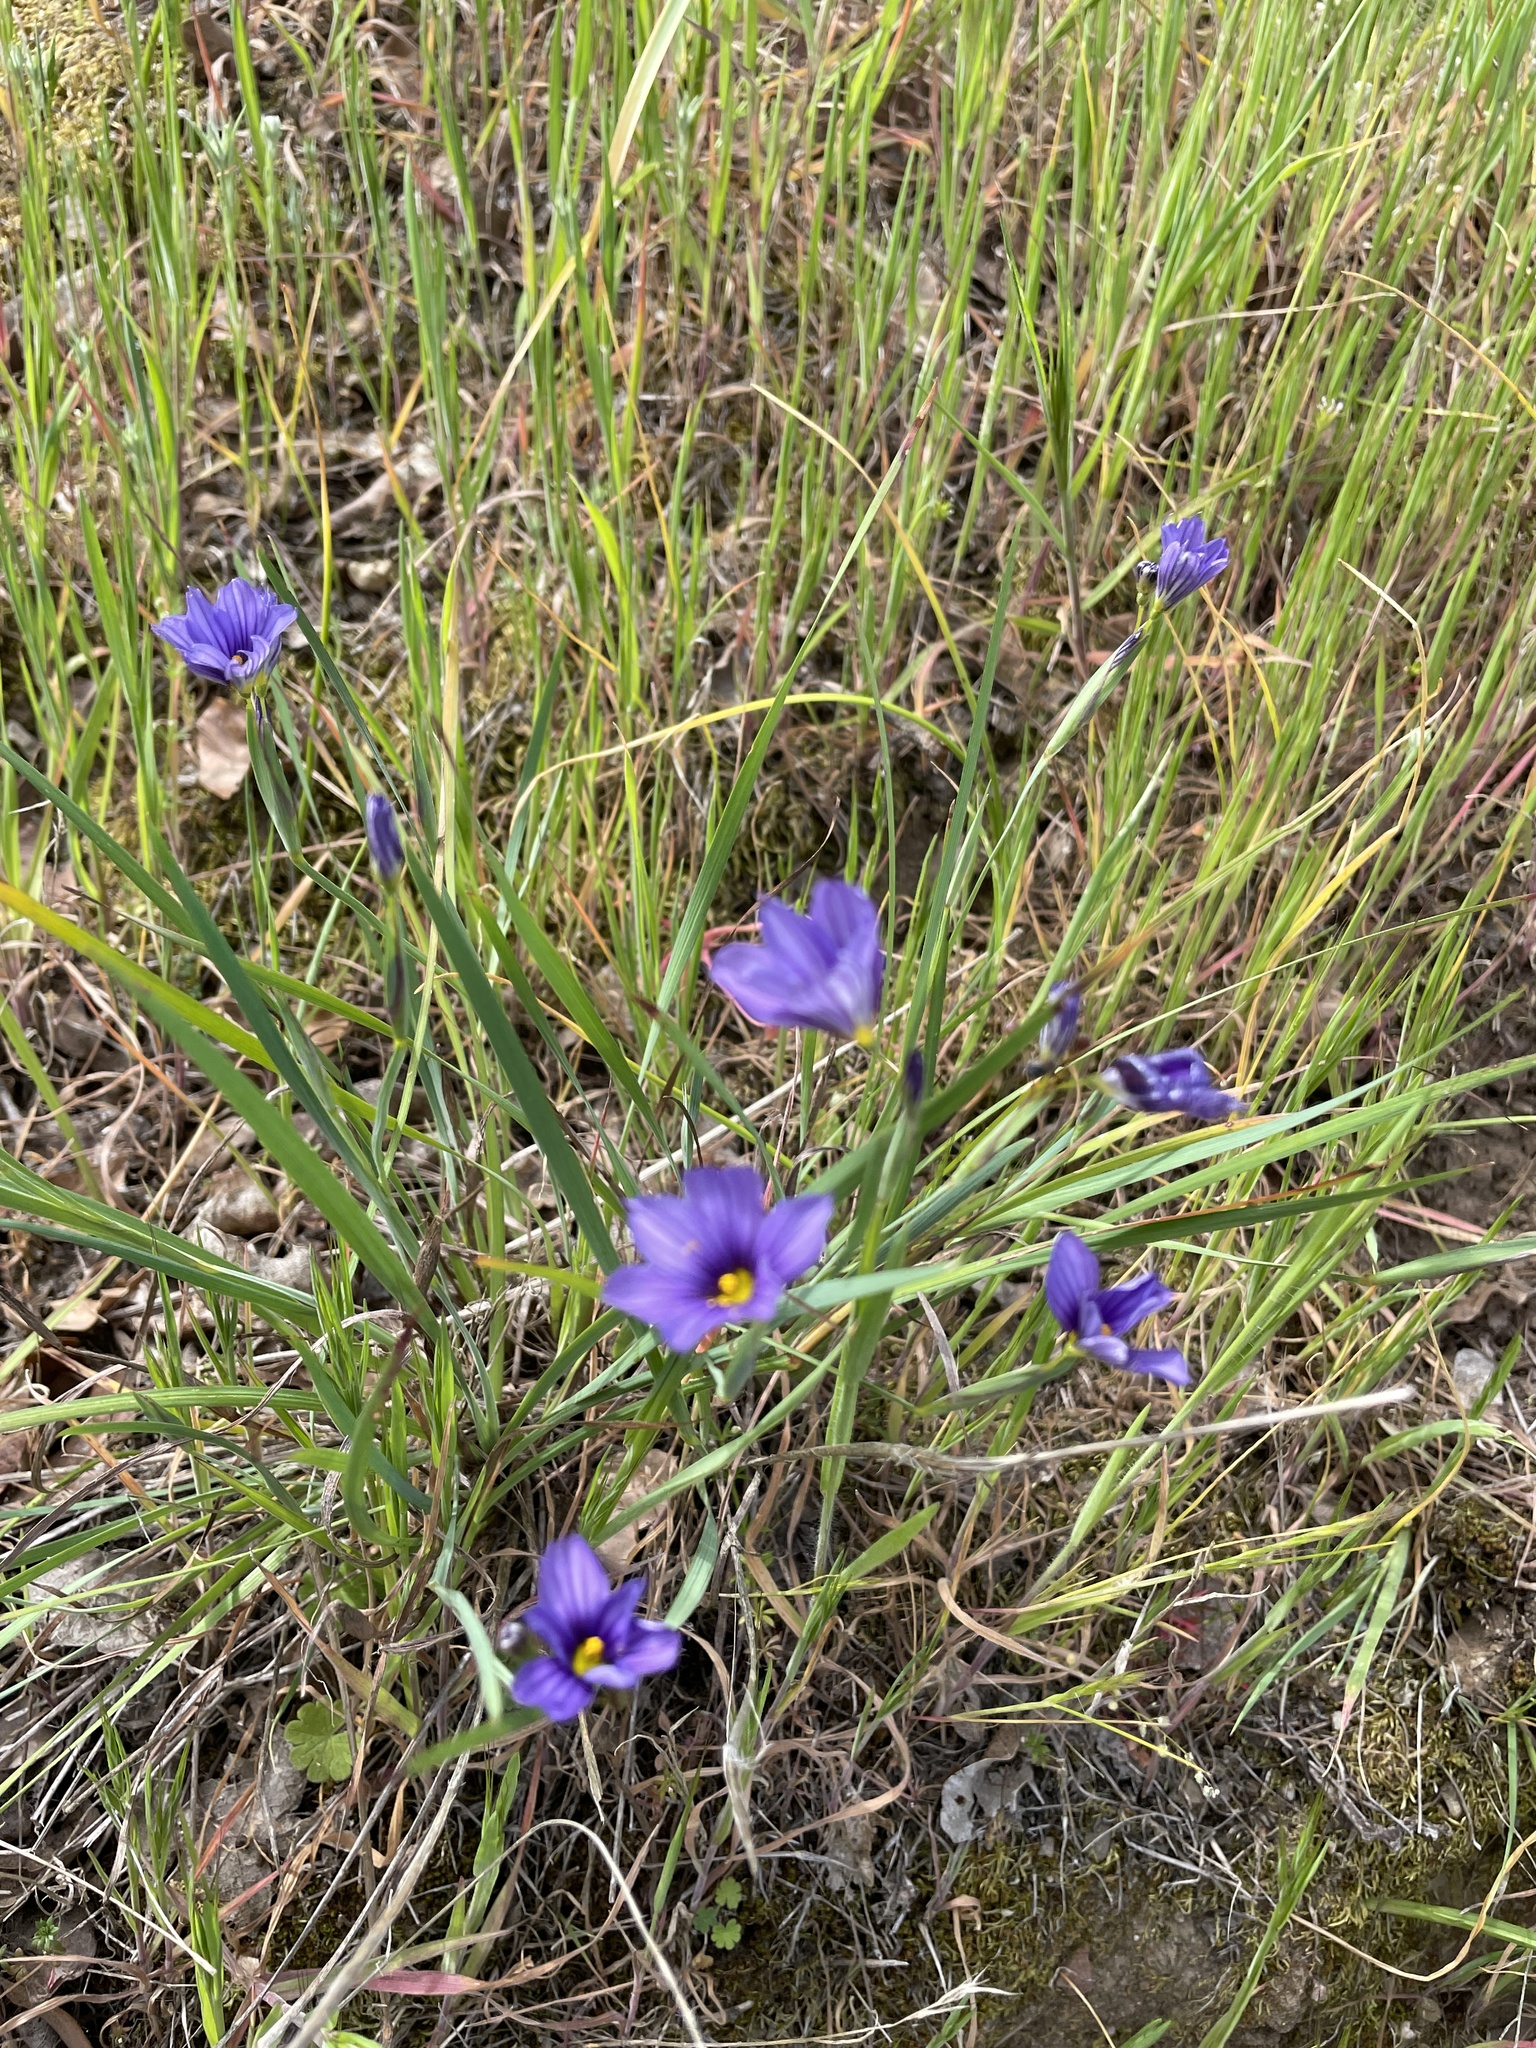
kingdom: Plantae
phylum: Tracheophyta
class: Liliopsida
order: Asparagales
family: Iridaceae
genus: Sisyrinchium
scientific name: Sisyrinchium bellum
